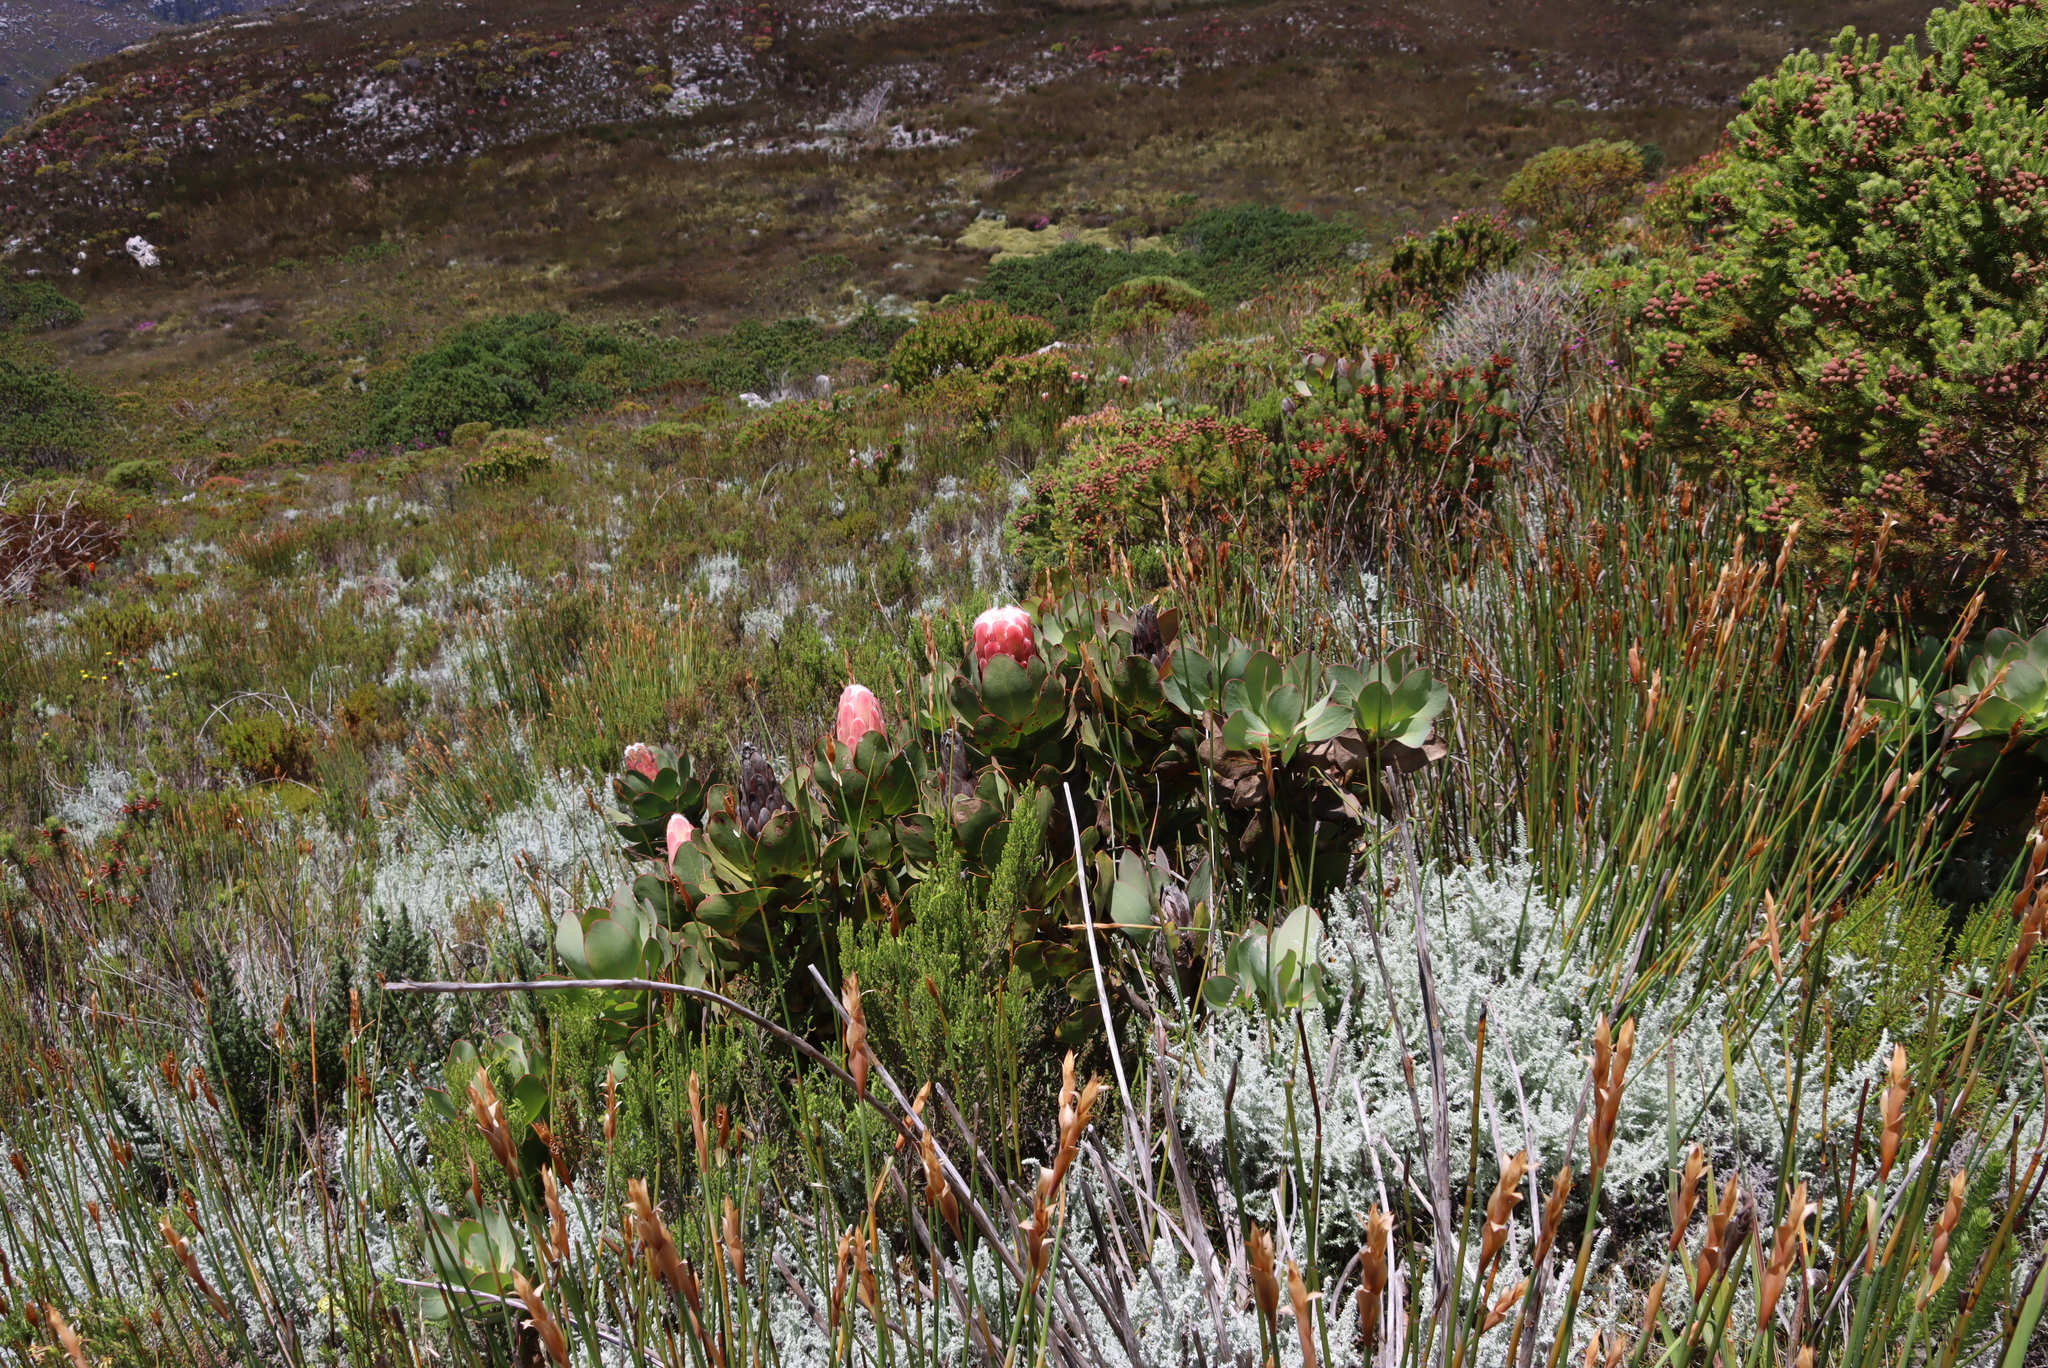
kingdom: Plantae
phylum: Tracheophyta
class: Magnoliopsida
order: Asterales
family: Asteraceae
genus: Seriphium
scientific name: Seriphium plumosum
